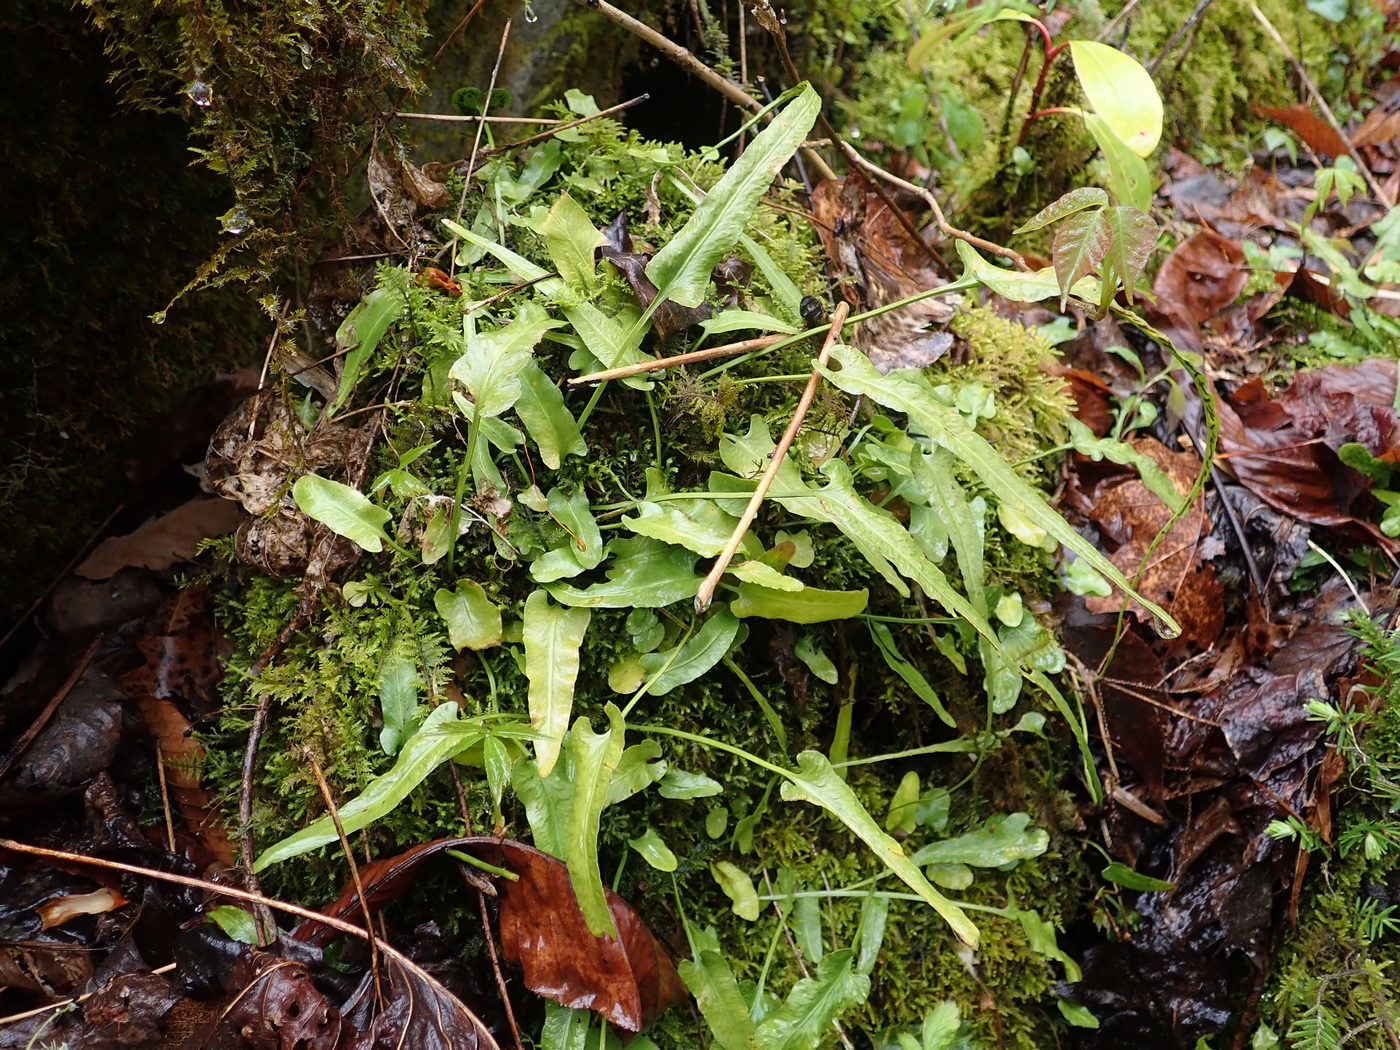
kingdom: Plantae
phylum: Tracheophyta
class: Polypodiopsida
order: Polypodiales
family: Aspleniaceae
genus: Asplenium
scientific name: Asplenium rhizophyllum
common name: Walking fern
